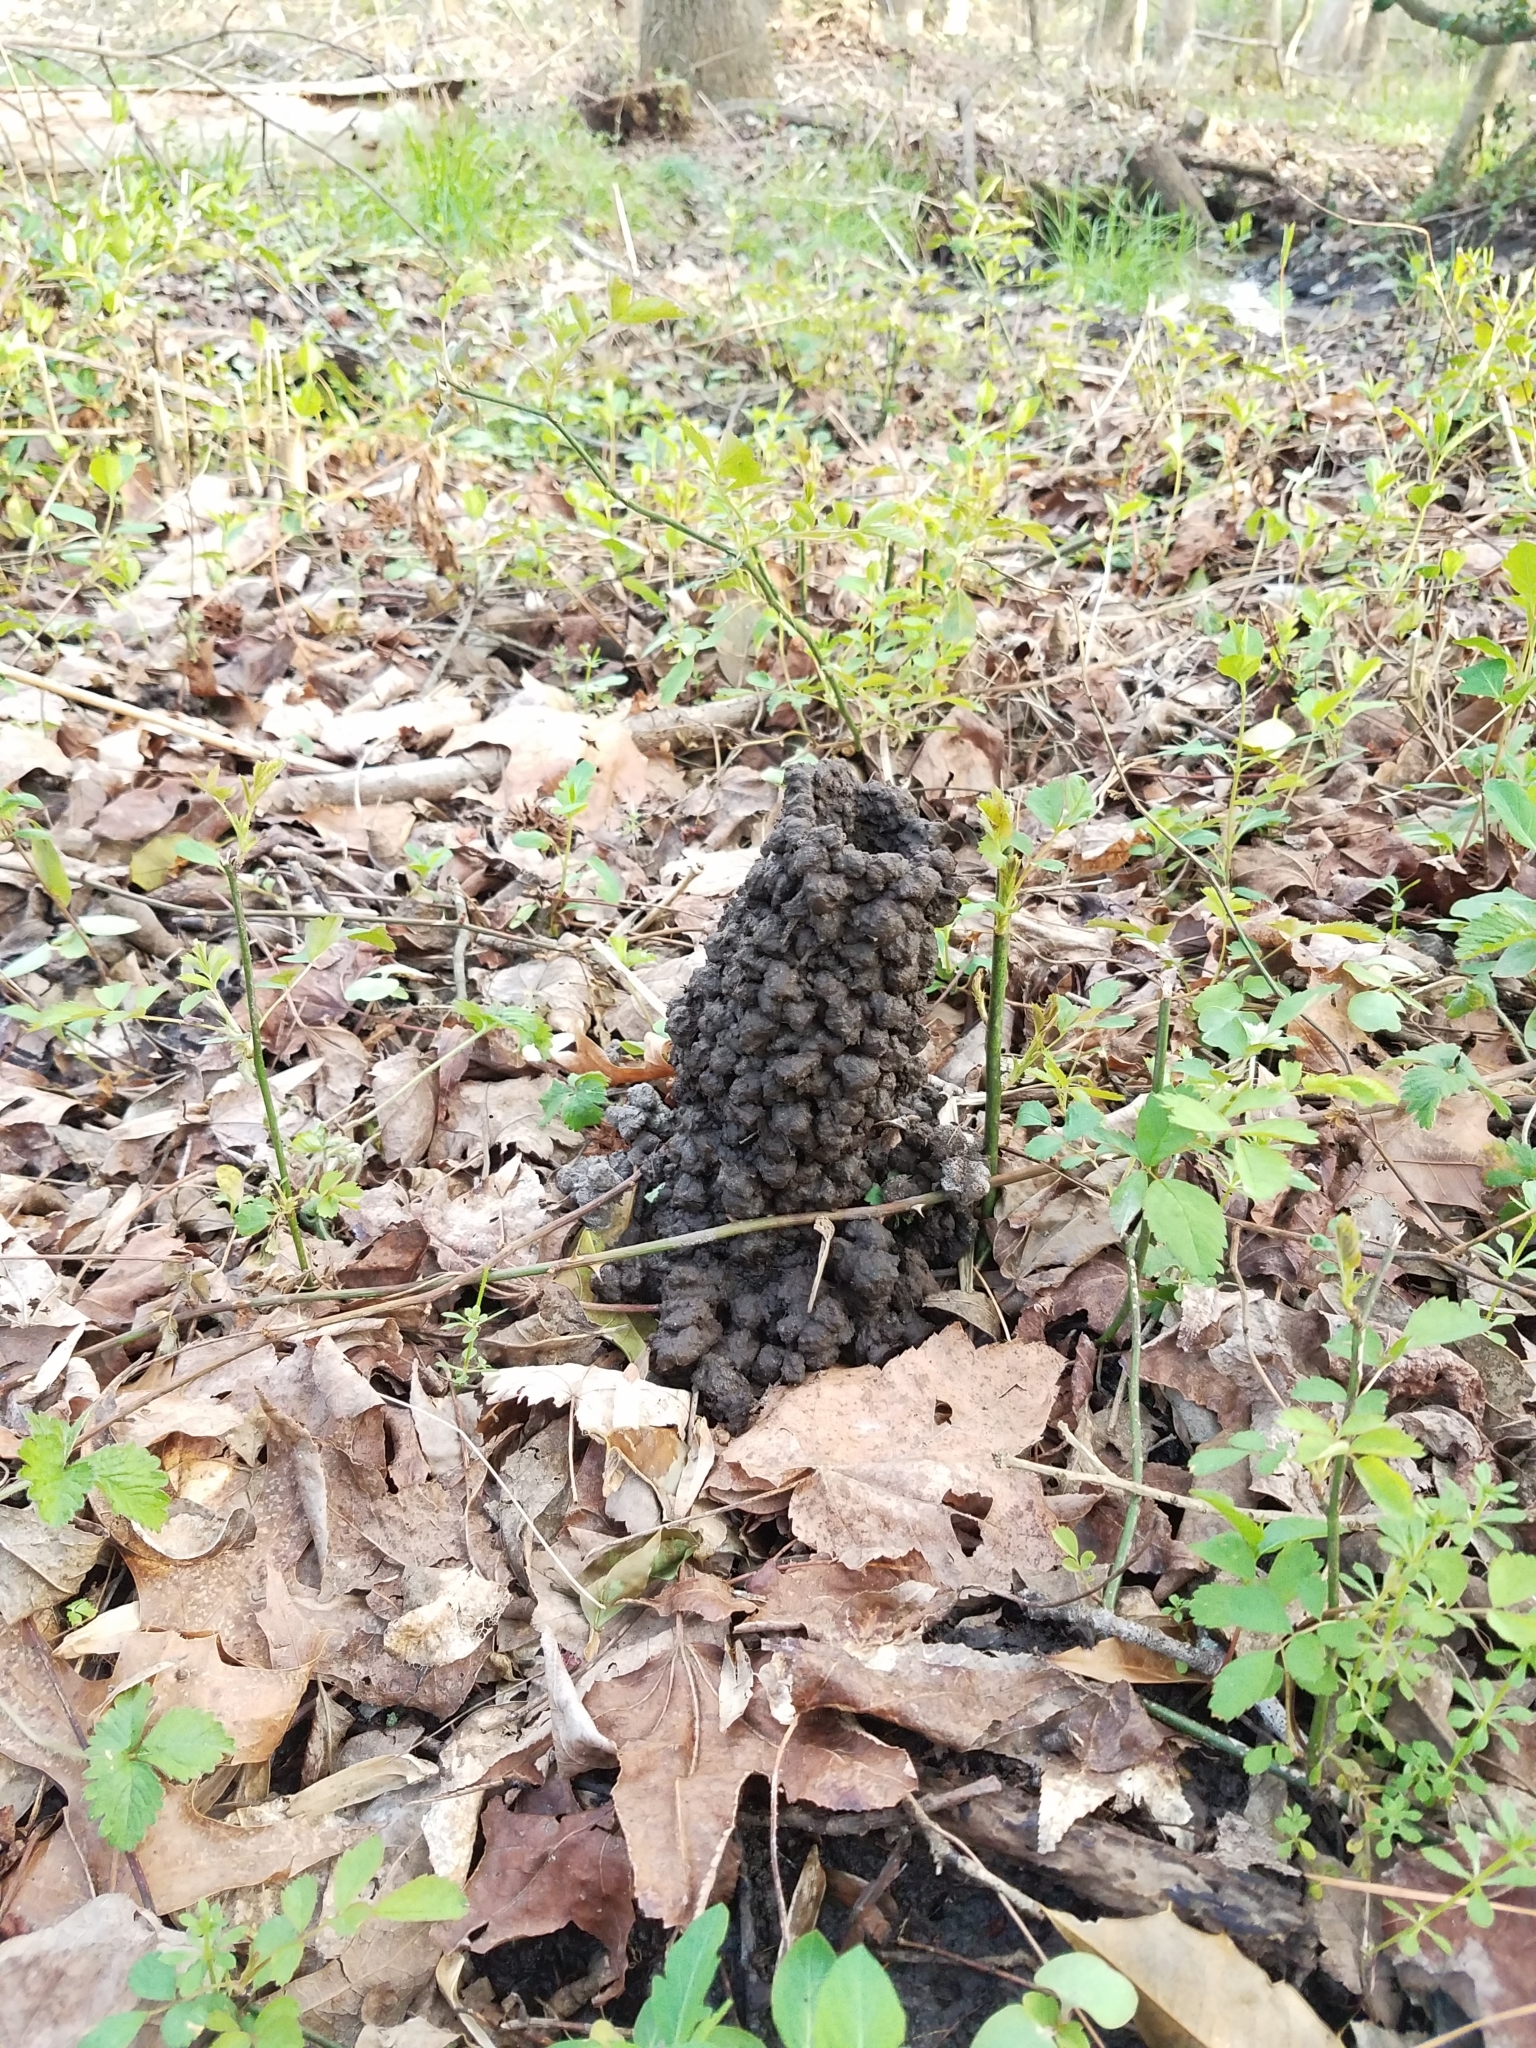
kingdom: Animalia
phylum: Arthropoda
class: Malacostraca
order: Decapoda
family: Cambaridae
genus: Lacunicambarus
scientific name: Lacunicambarus diogenes
